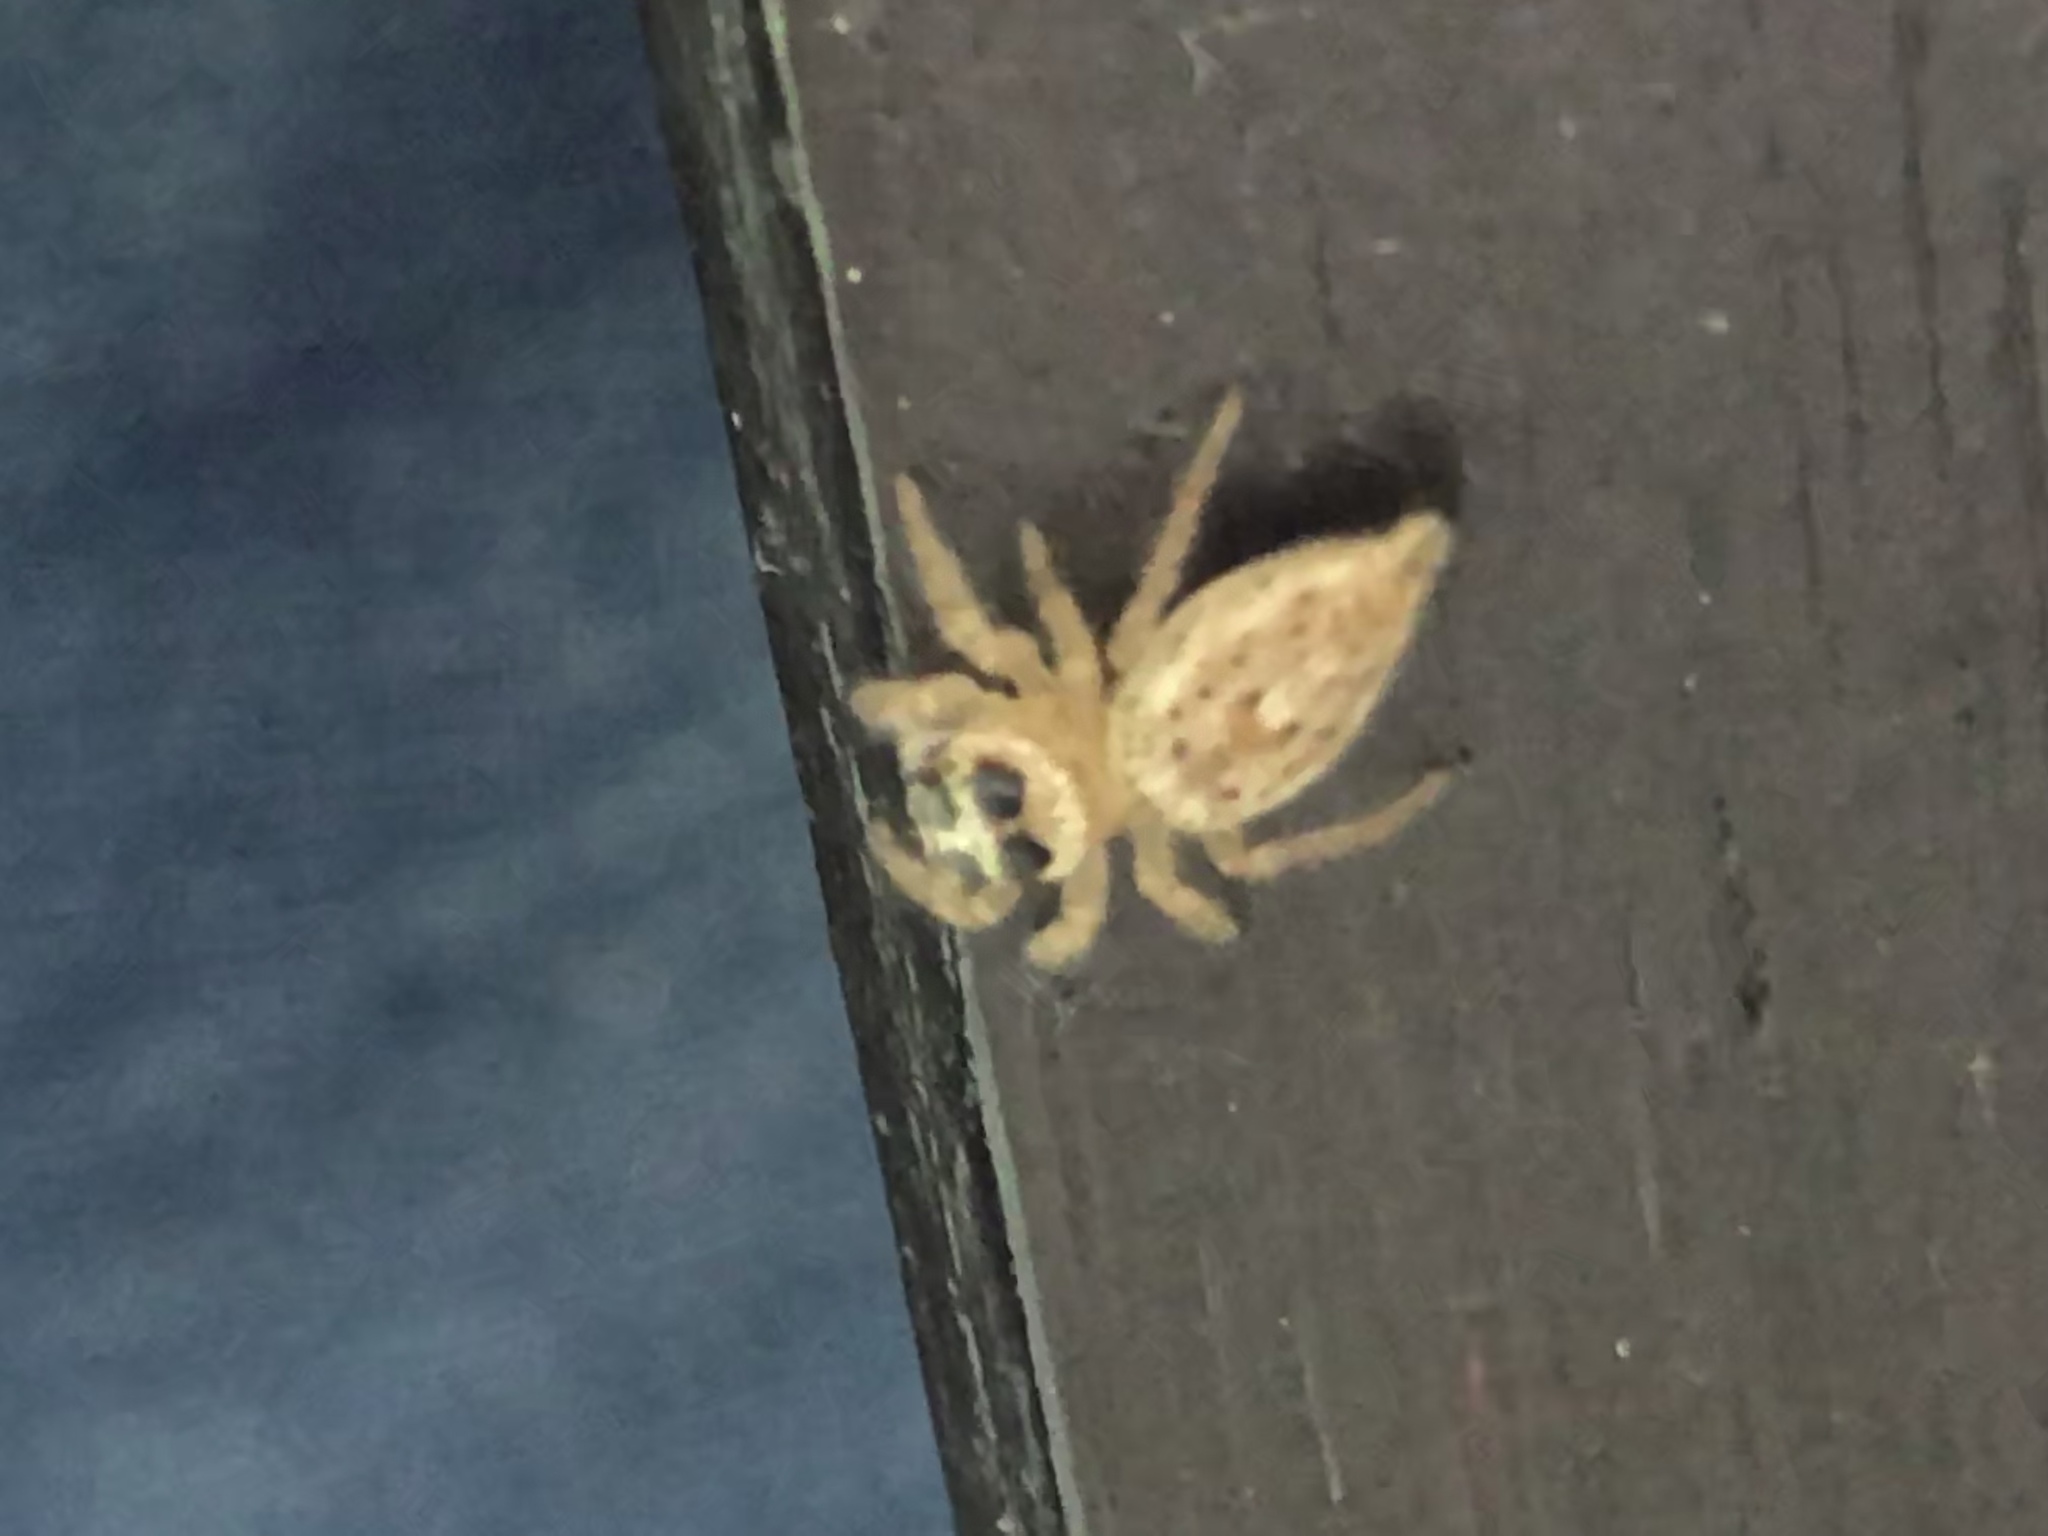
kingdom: Animalia
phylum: Arthropoda
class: Arachnida
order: Araneae
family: Salticidae
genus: Colonus
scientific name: Colonus hesperus
